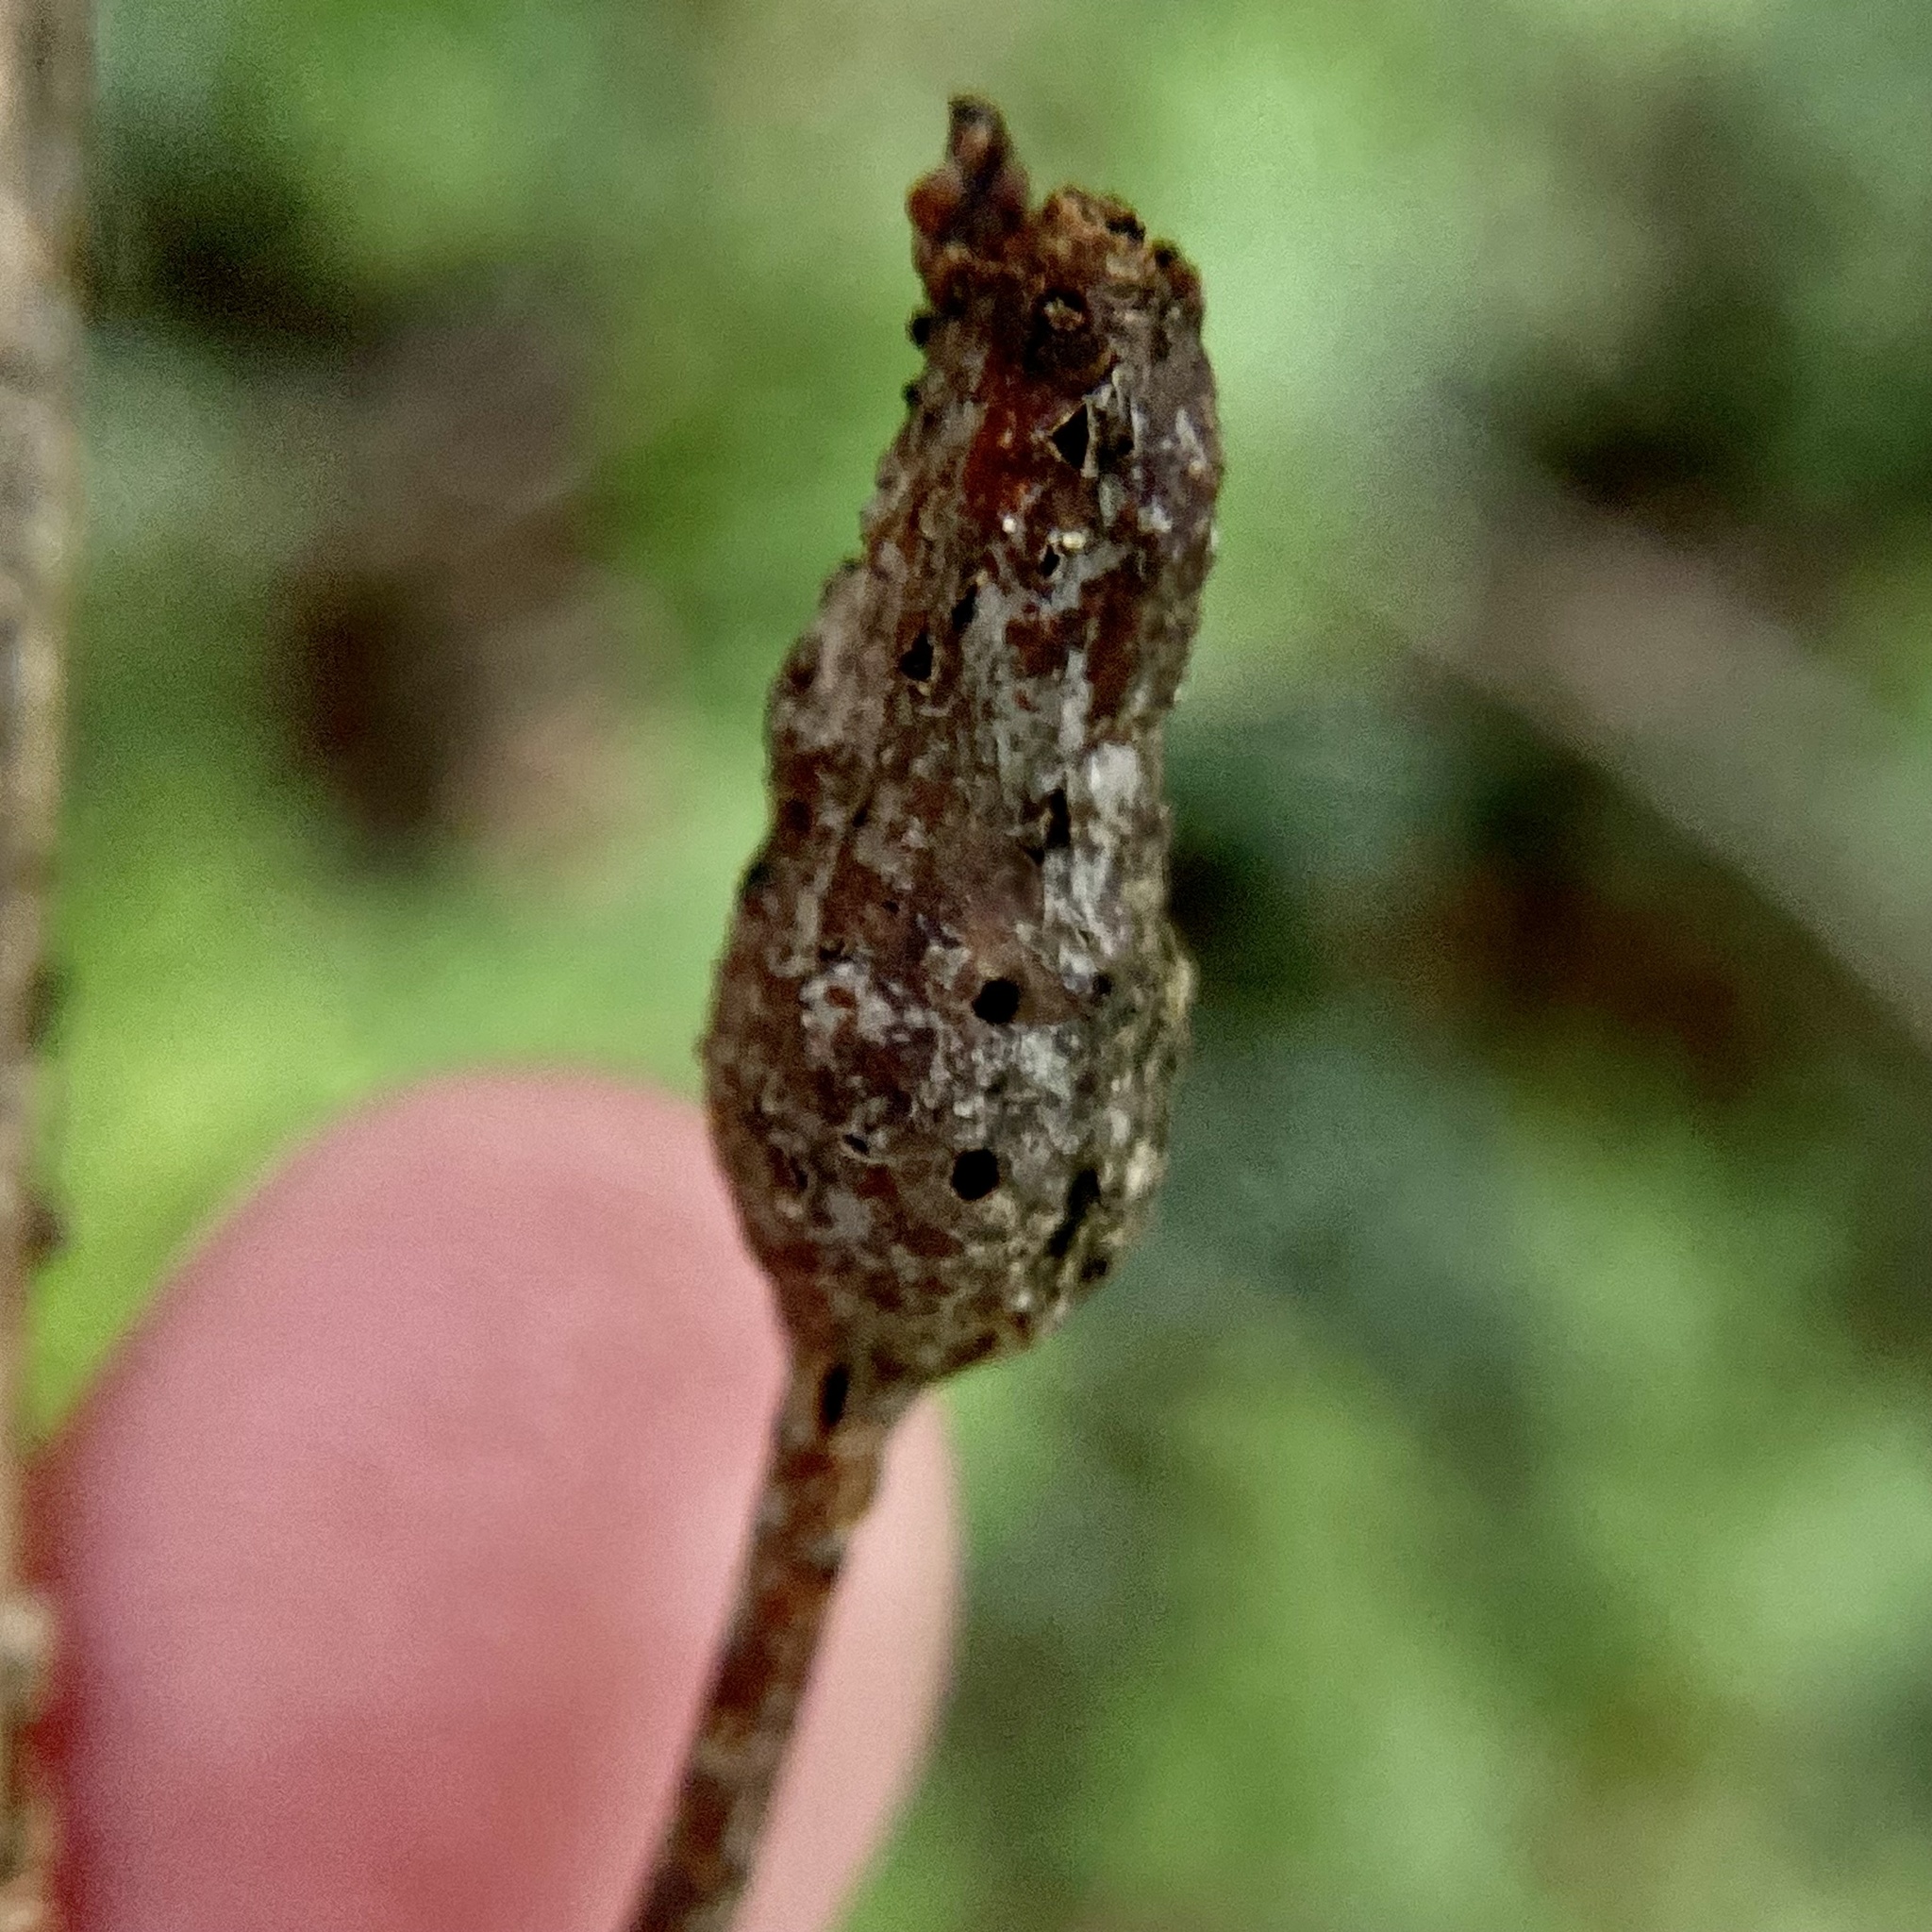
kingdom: Animalia
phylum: Arthropoda
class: Insecta
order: Hymenoptera
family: Cynipidae
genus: Neuroterus
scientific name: Neuroterus quercusbaccarum
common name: Common spangle gall
